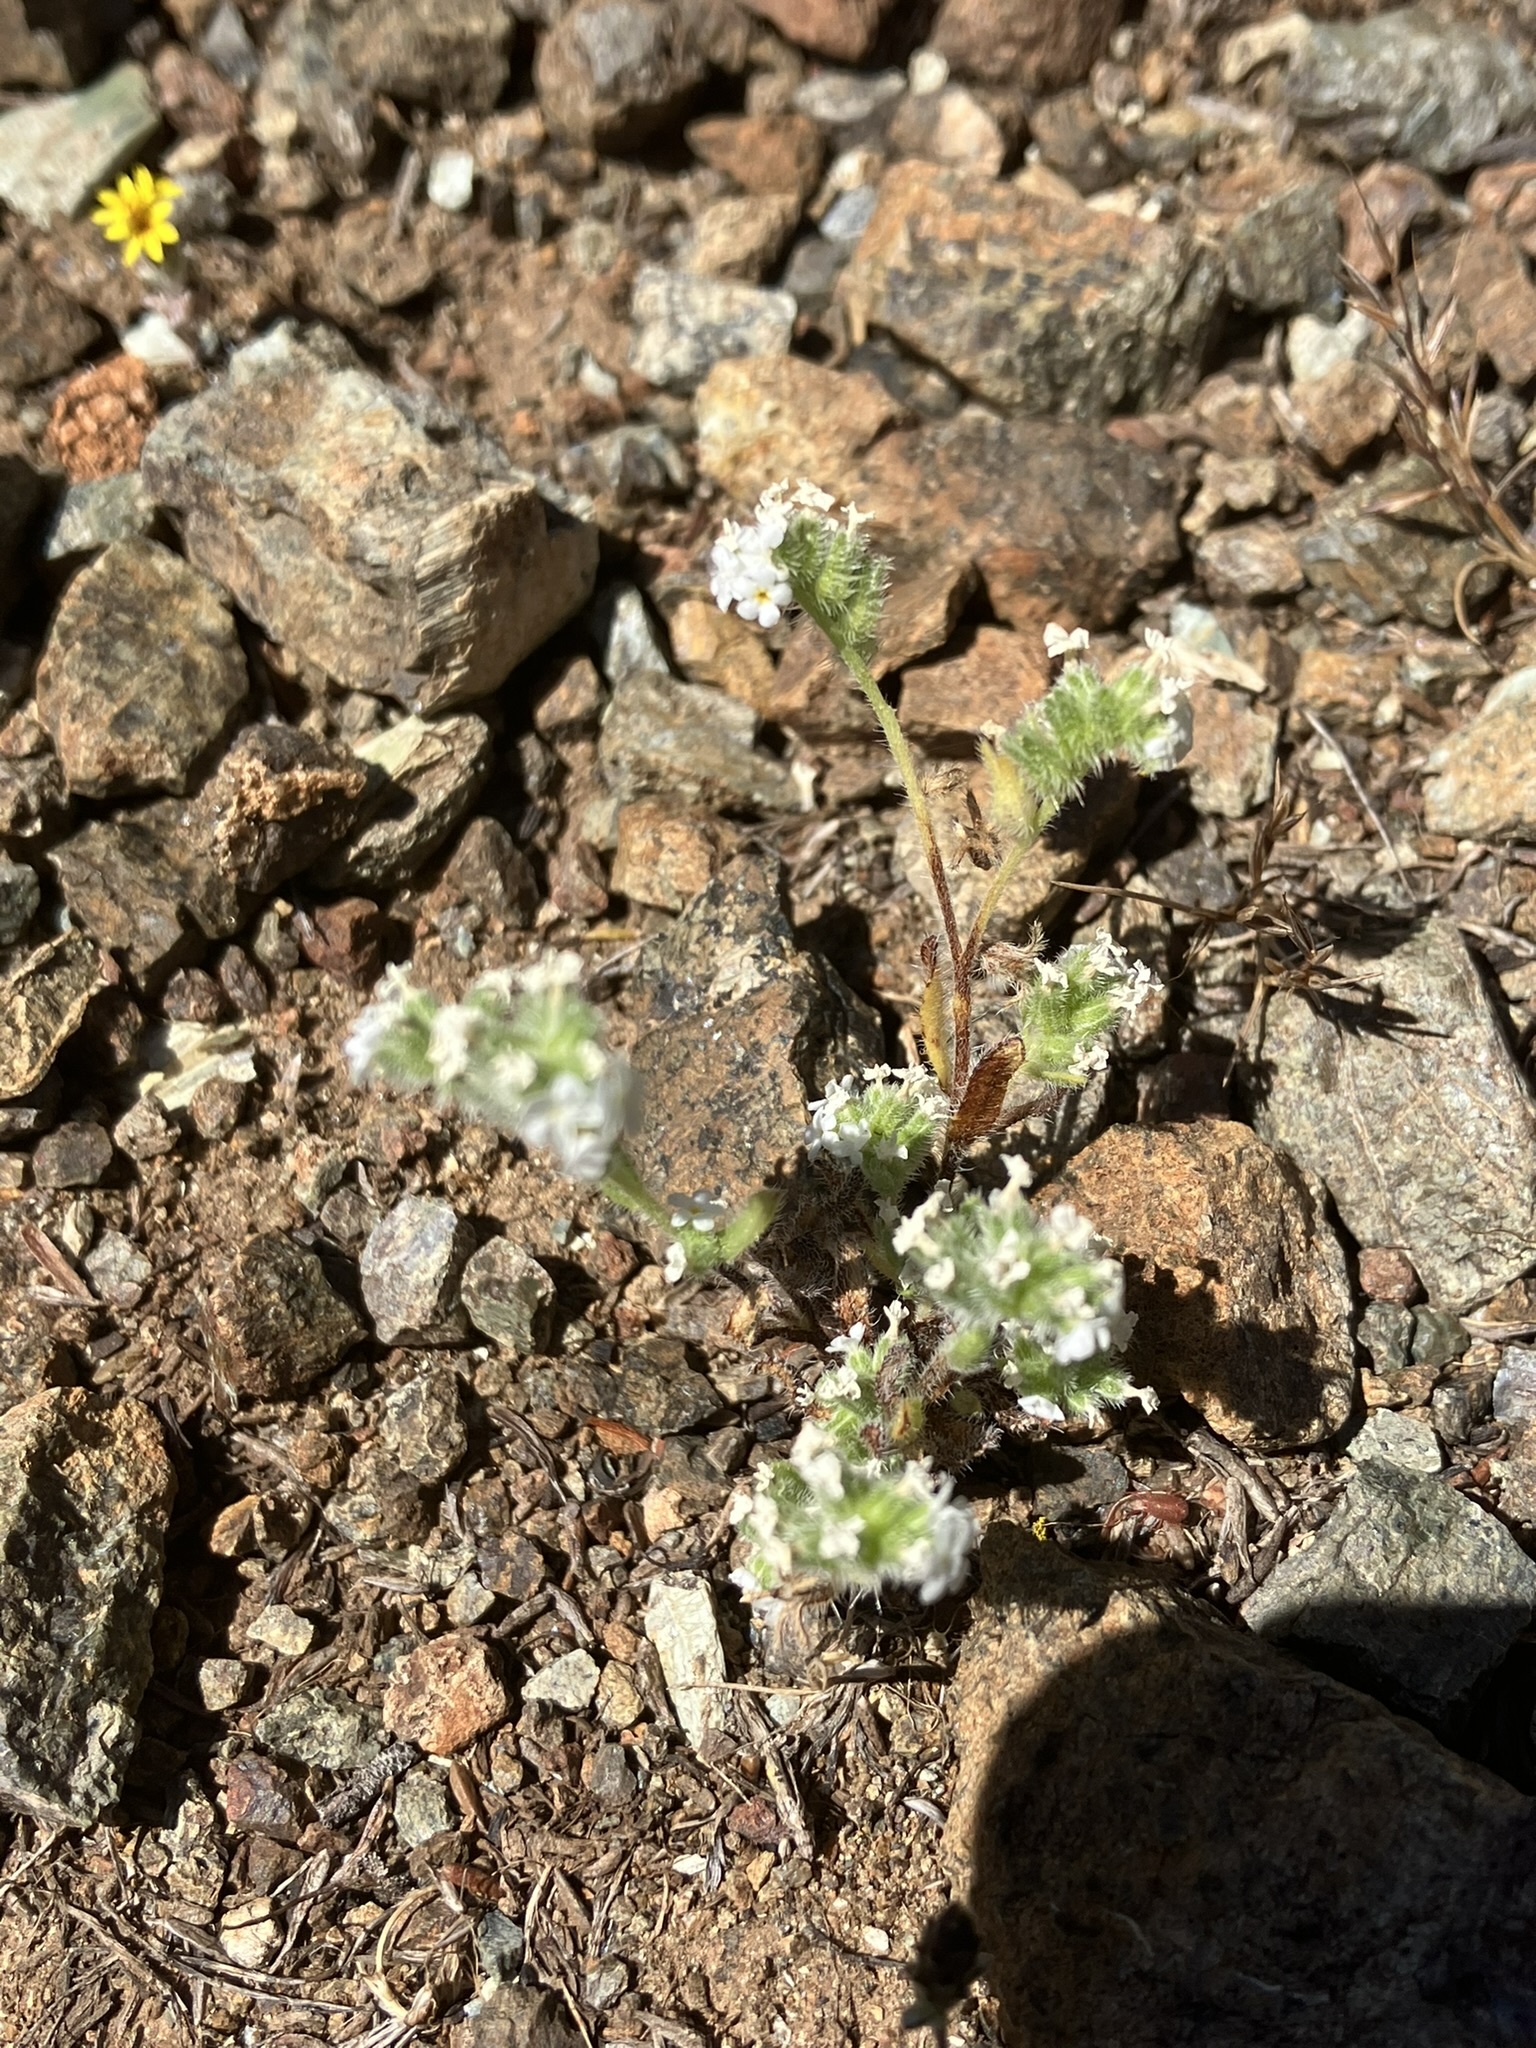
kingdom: Plantae
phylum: Tracheophyta
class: Magnoliopsida
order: Boraginales
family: Boraginaceae
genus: Cryptantha
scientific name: Cryptantha clevelandii
